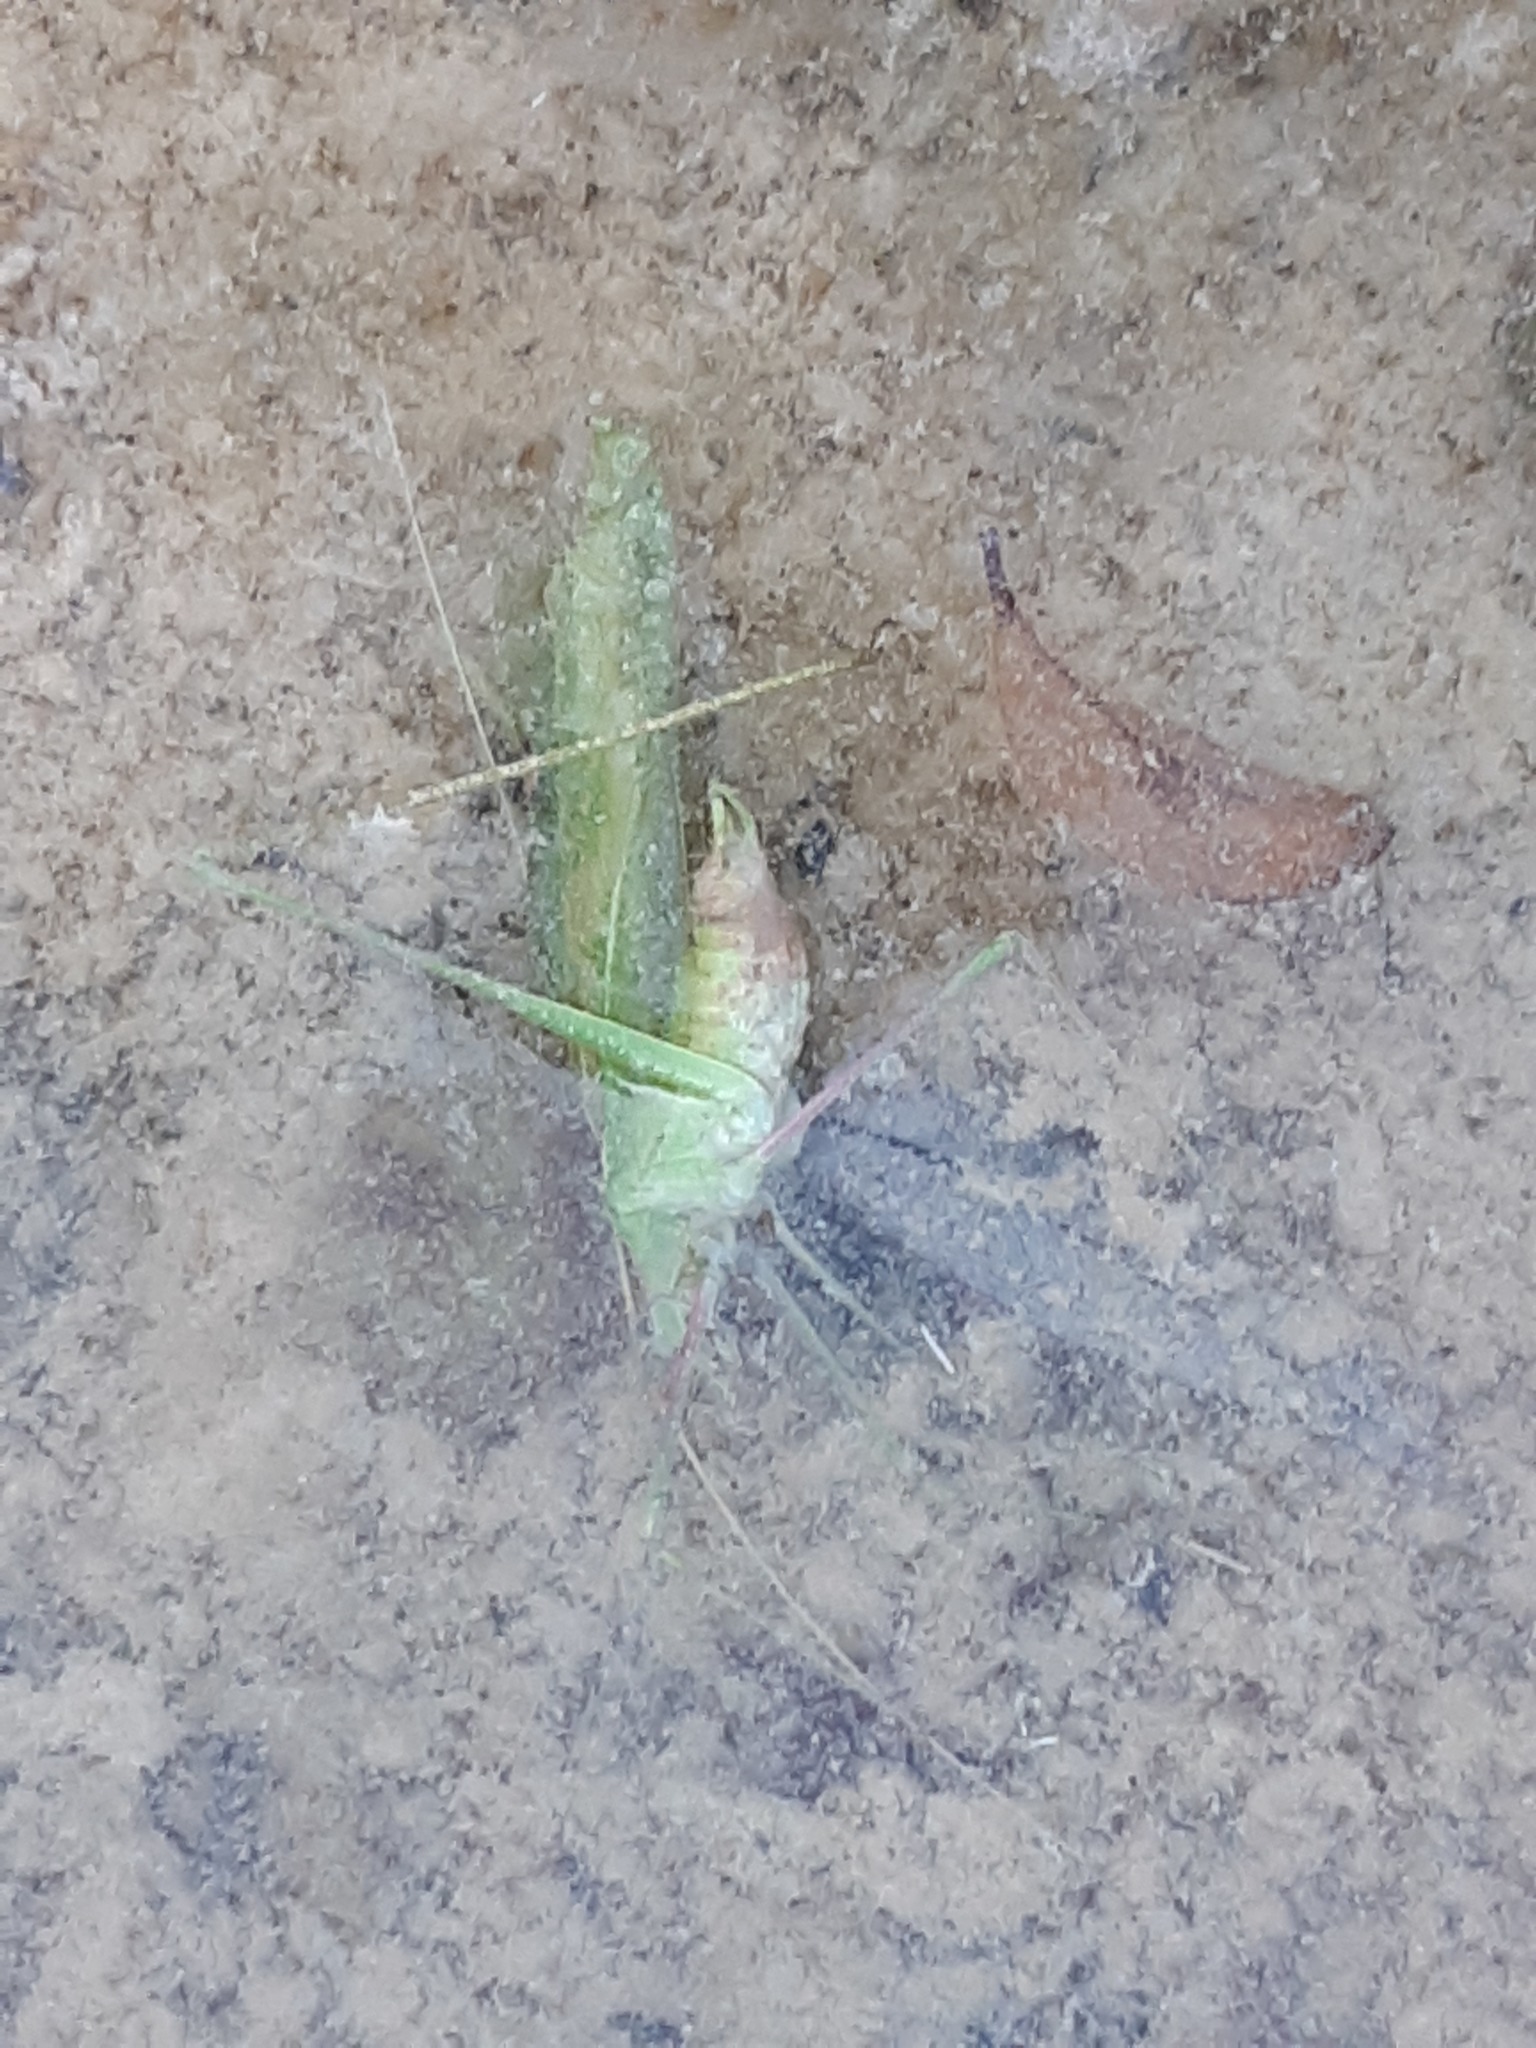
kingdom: Animalia
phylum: Arthropoda
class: Insecta
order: Orthoptera
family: Tettigoniidae
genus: Acrometopa
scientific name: Acrometopa macropoda
